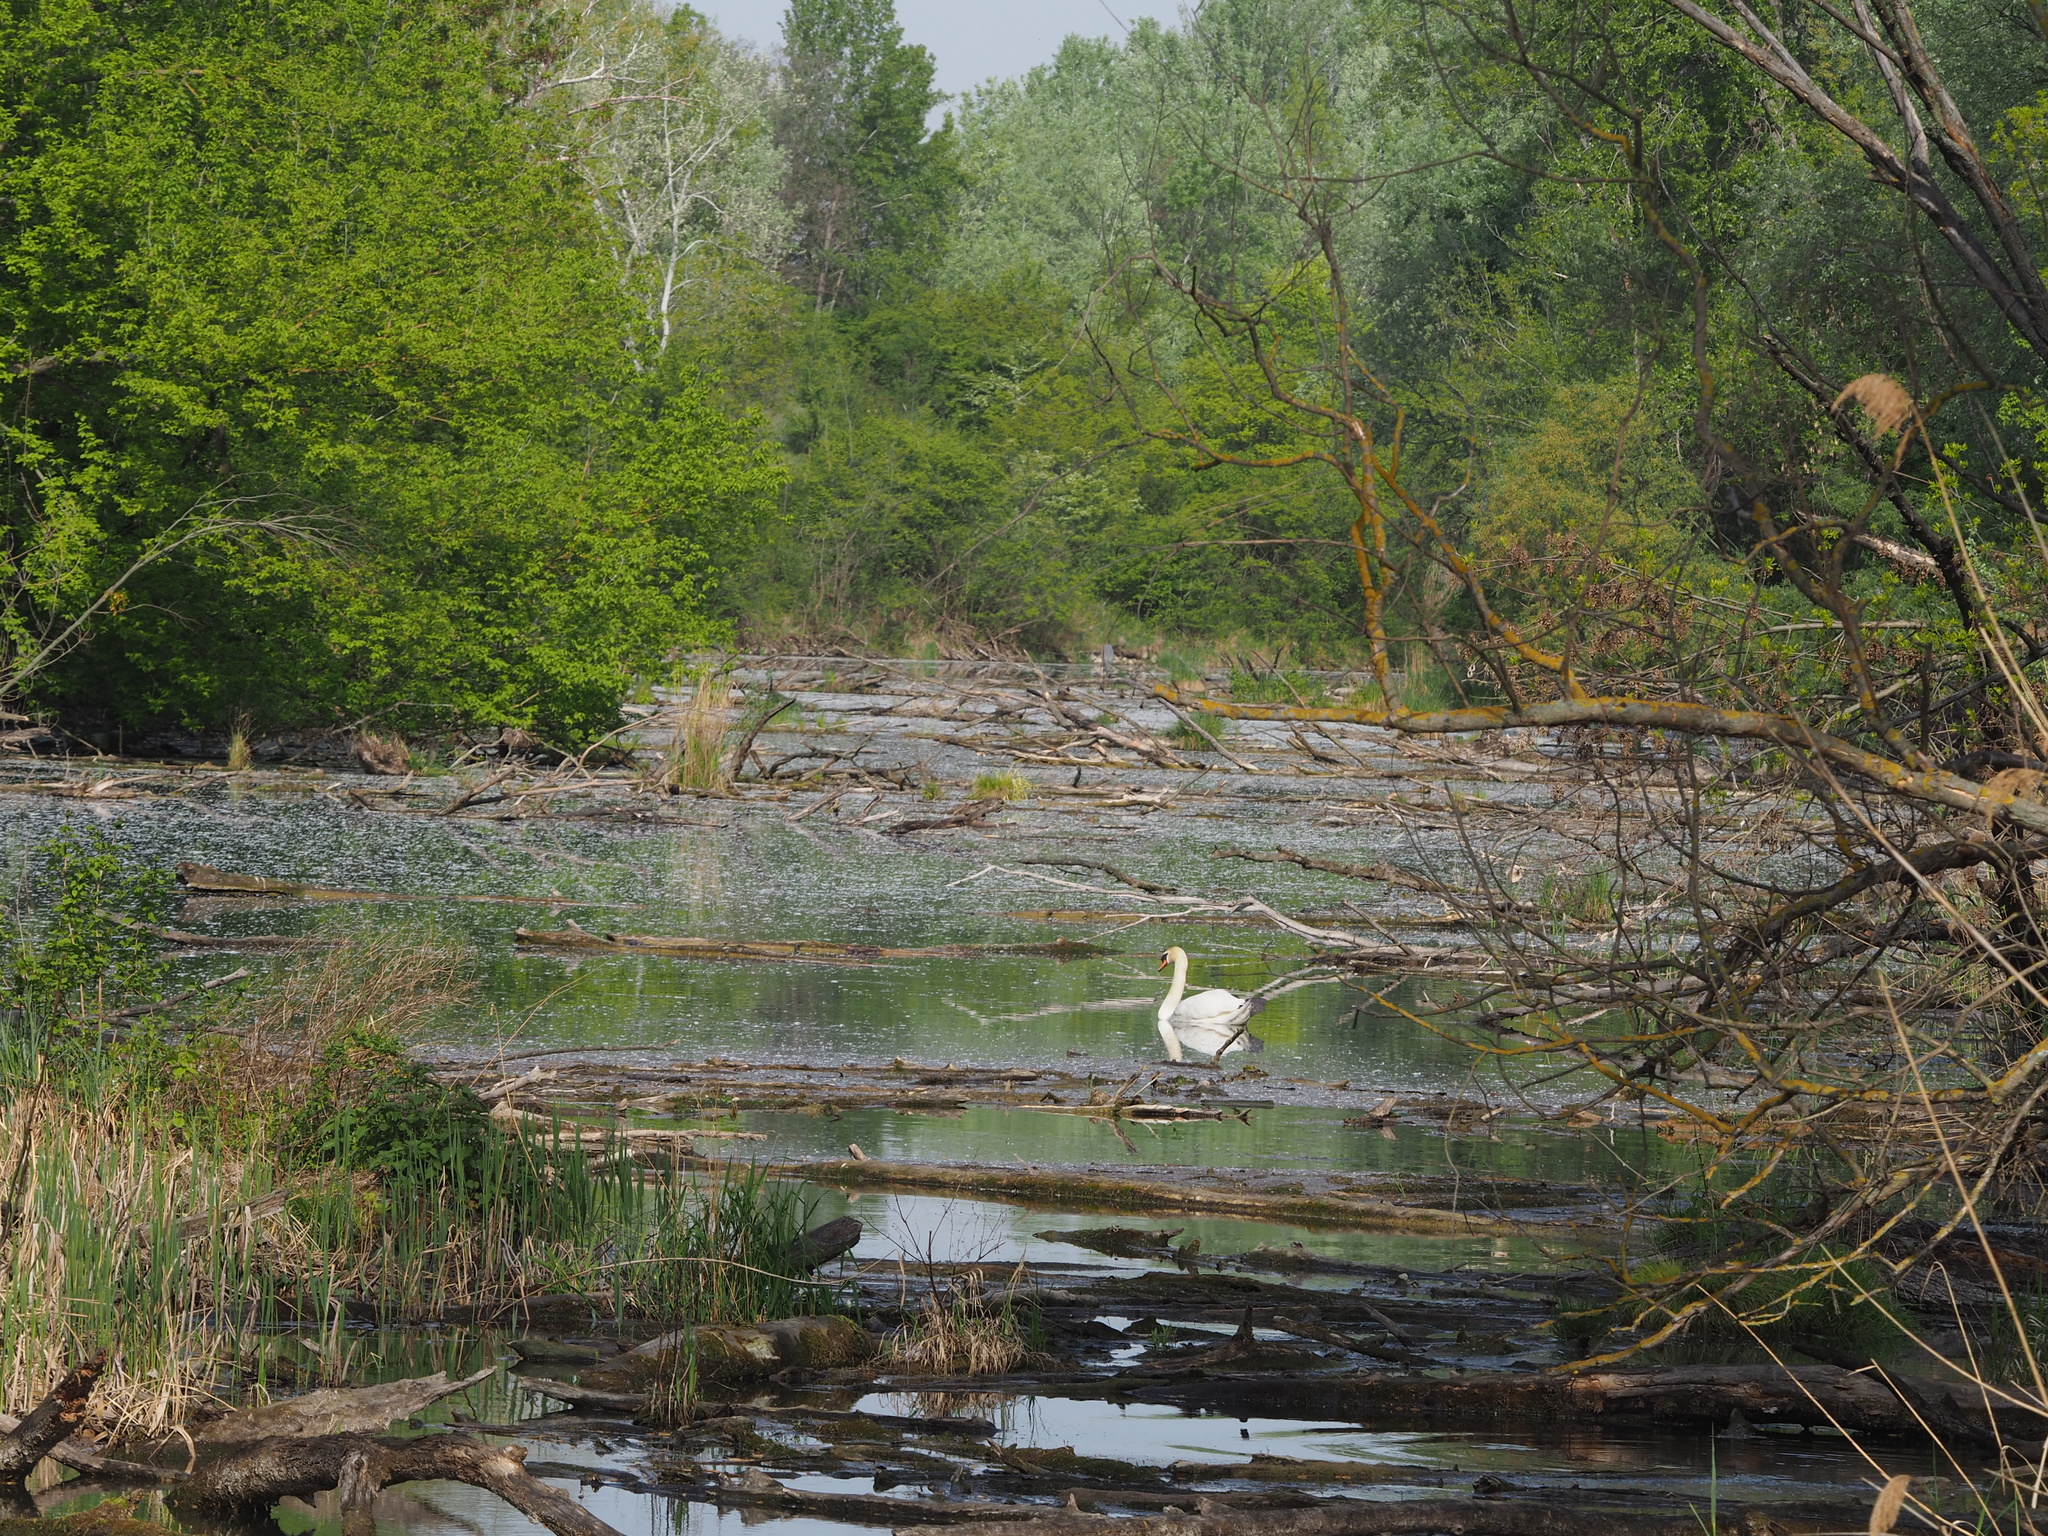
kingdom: Animalia
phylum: Chordata
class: Aves
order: Anseriformes
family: Anatidae
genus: Cygnus
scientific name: Cygnus olor
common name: Mute swan
